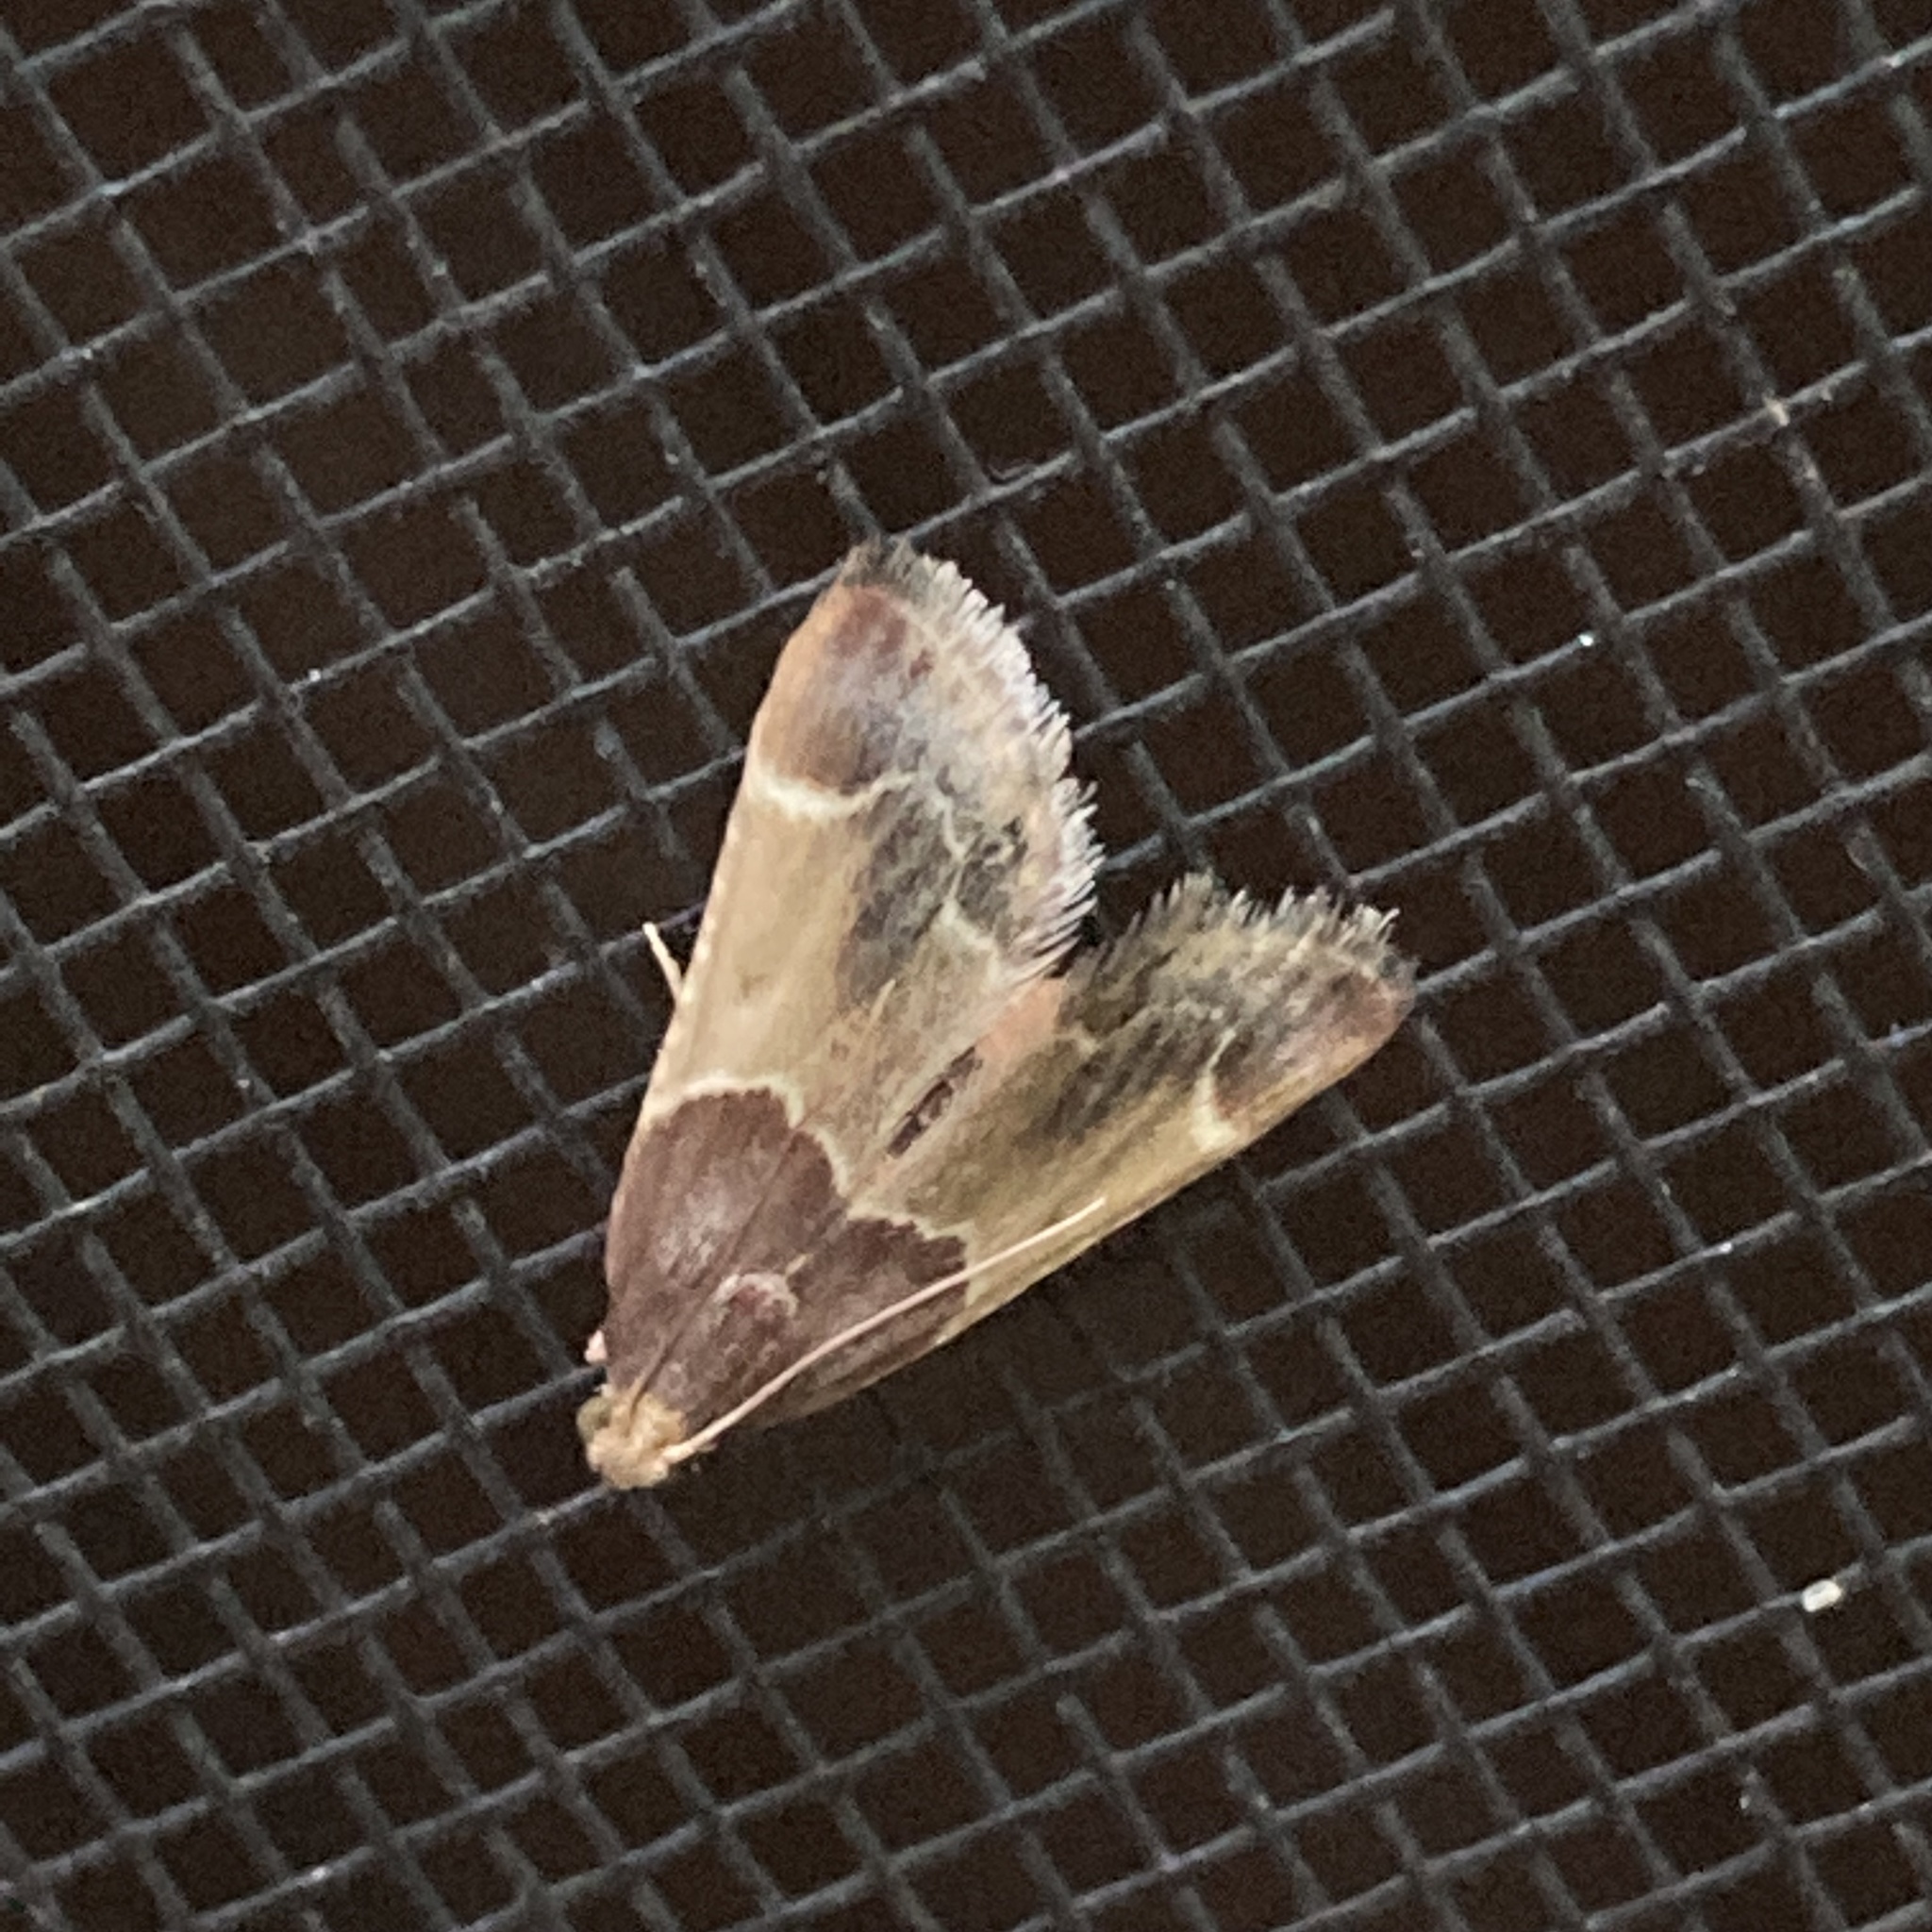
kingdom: Animalia
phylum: Arthropoda
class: Insecta
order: Lepidoptera
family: Pyralidae
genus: Pyralis
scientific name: Pyralis farinalis
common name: Meal moth
